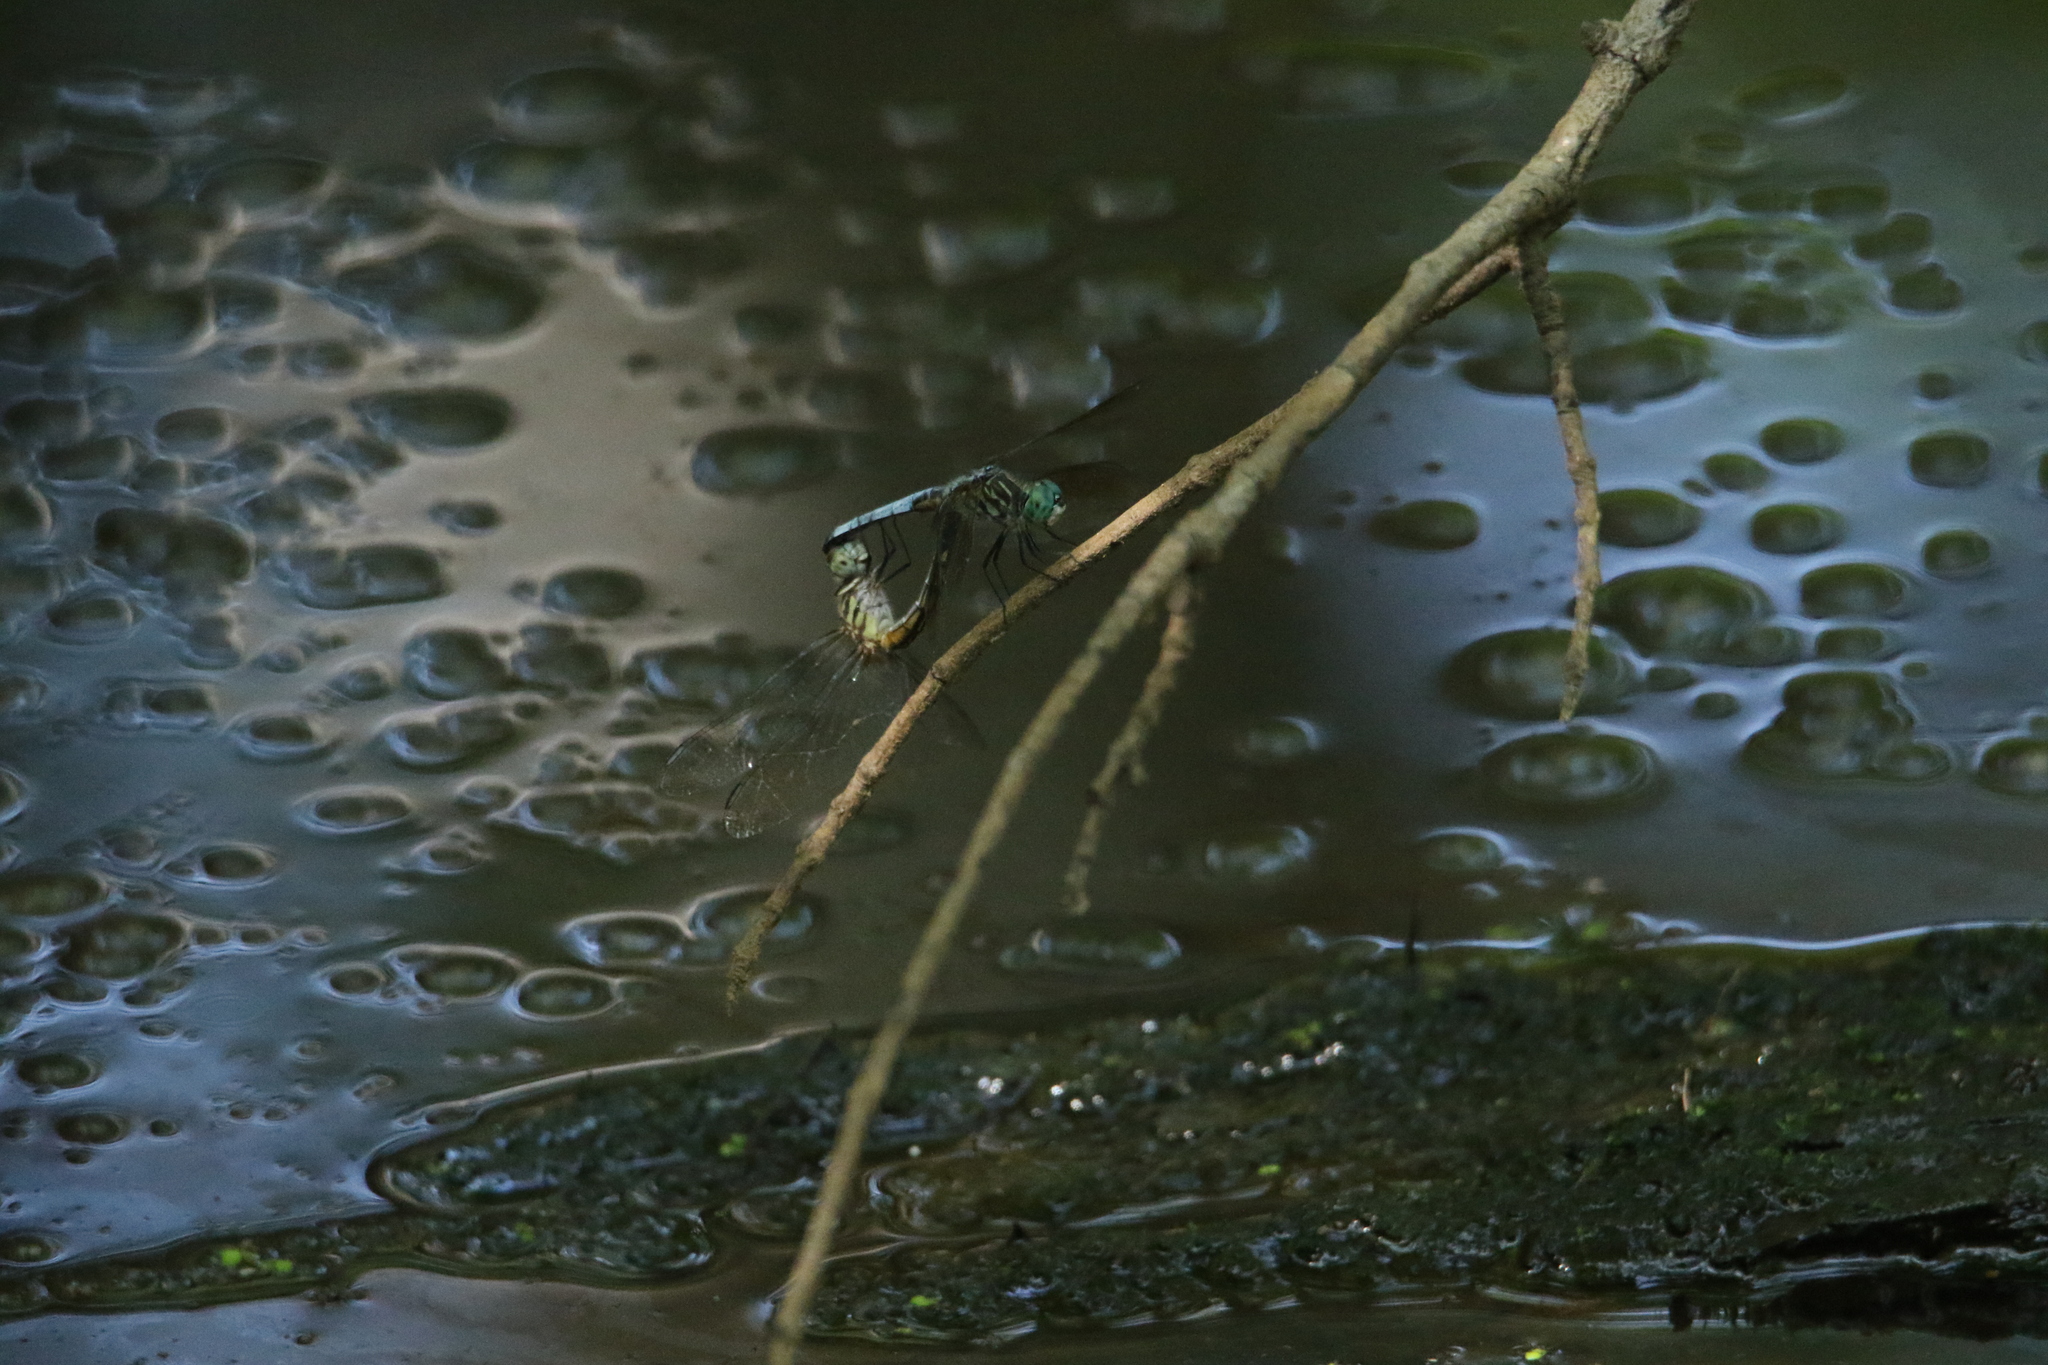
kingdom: Animalia
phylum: Arthropoda
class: Insecta
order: Odonata
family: Libellulidae
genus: Pachydiplax
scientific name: Pachydiplax longipennis
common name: Blue dasher
